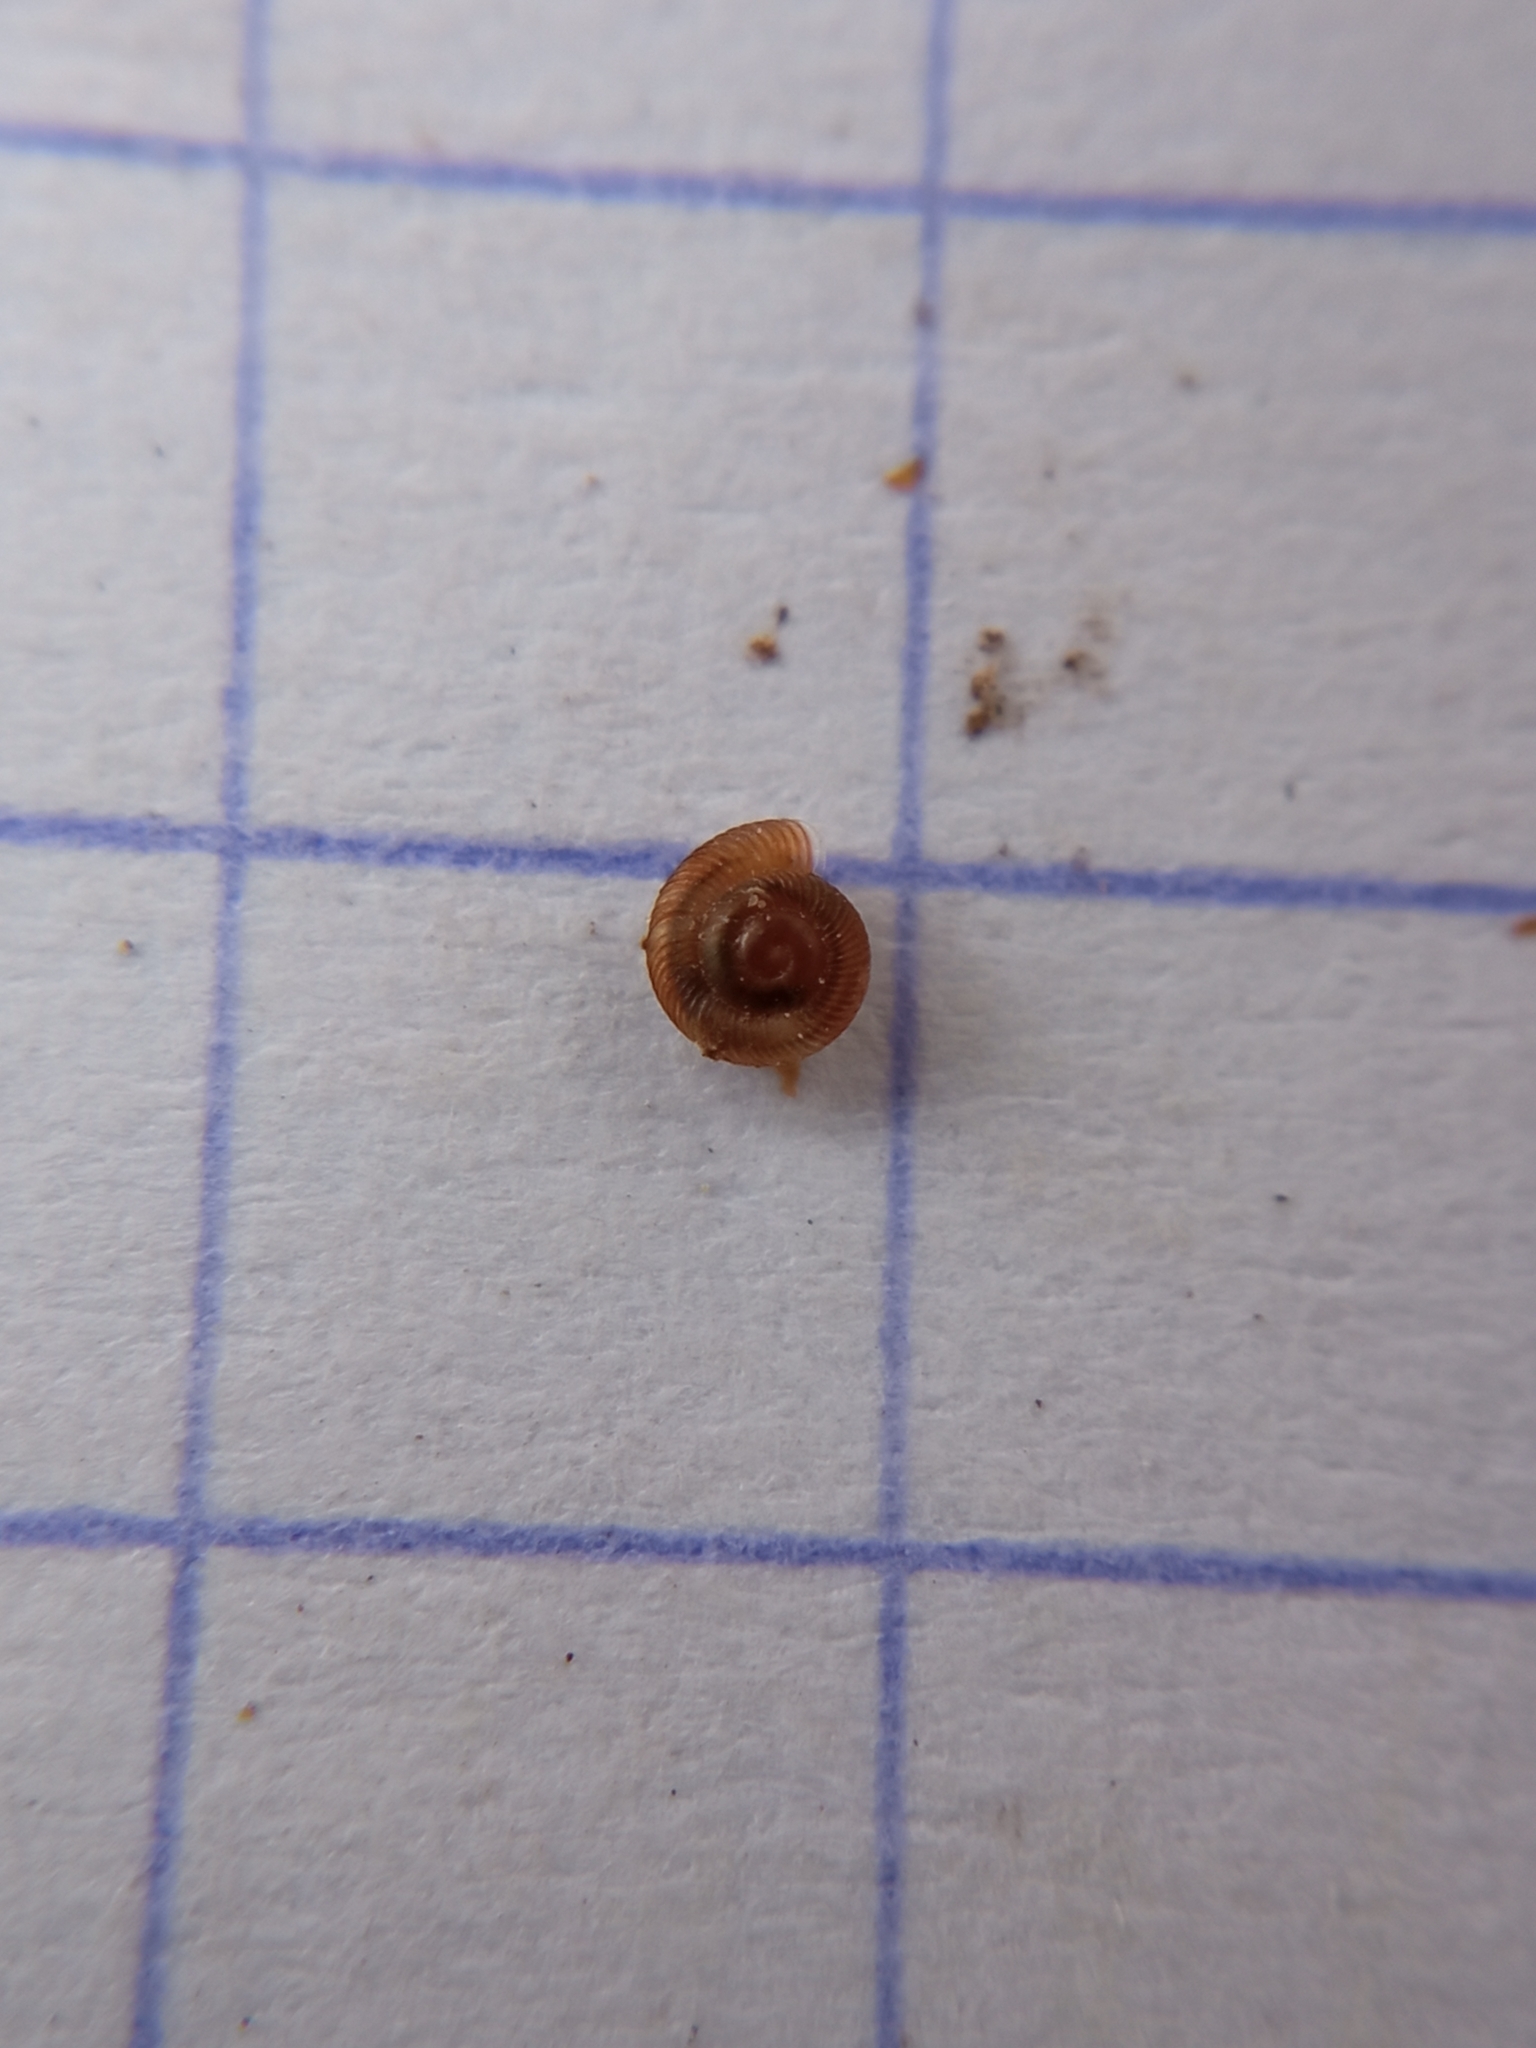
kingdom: Animalia
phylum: Mollusca
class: Gastropoda
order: Stylommatophora
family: Discidae
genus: Discus
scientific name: Discus rotundatus
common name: Rounded snail
